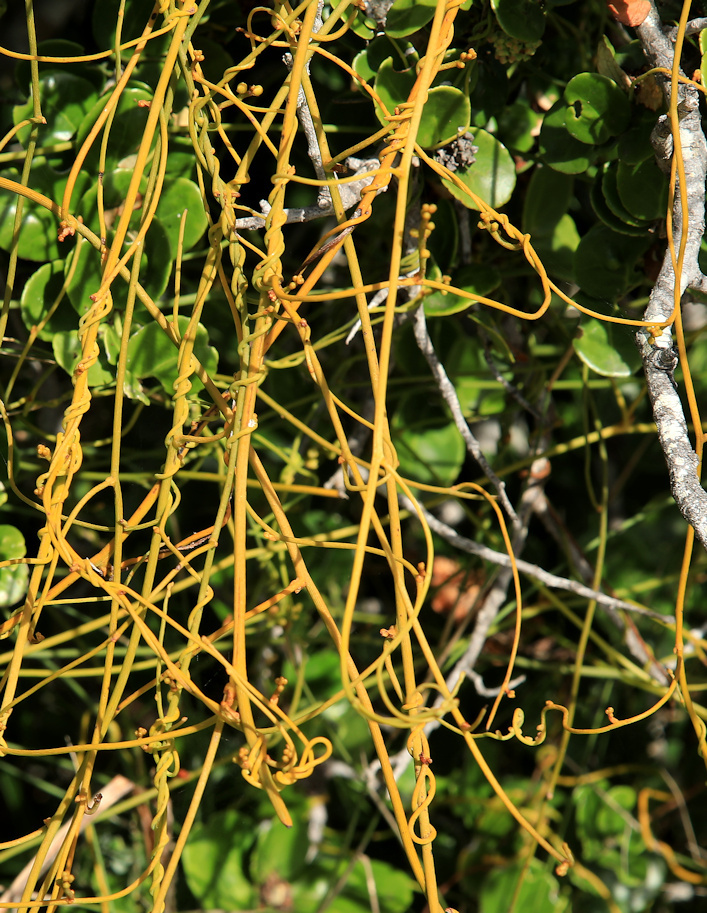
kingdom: Plantae
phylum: Tracheophyta
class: Magnoliopsida
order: Laurales
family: Lauraceae
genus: Cassytha
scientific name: Cassytha ciliolata
